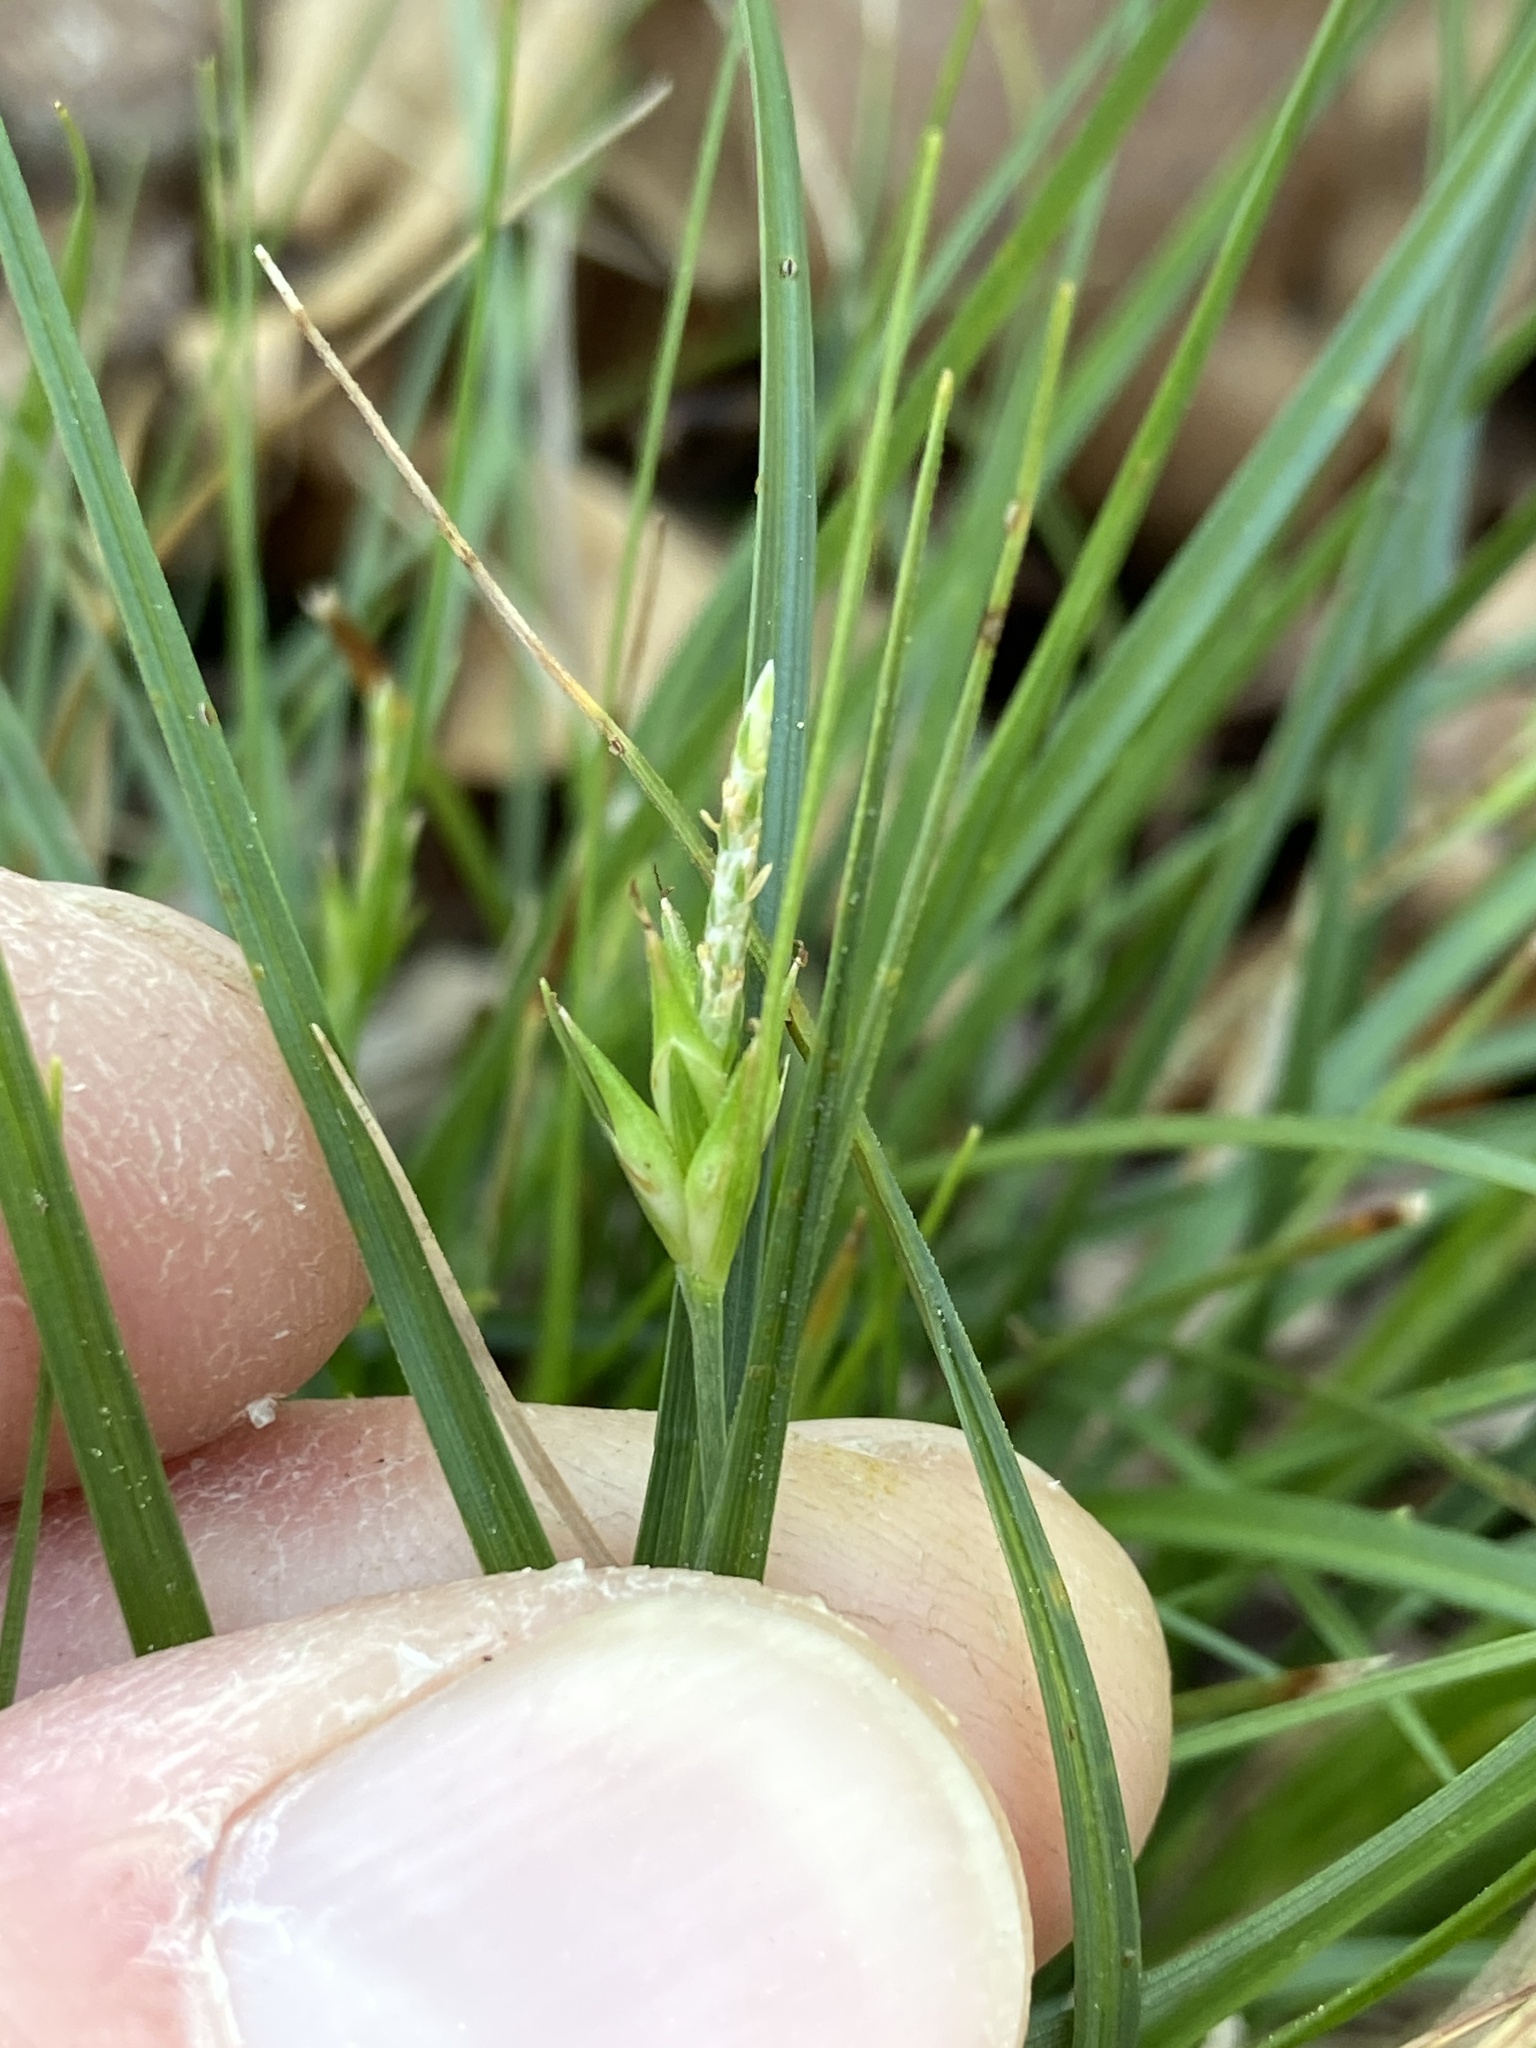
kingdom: Plantae
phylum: Tracheophyta
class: Liliopsida
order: Poales
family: Cyperaceae
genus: Carex
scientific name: Carex willdenowii
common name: Willdenow's sedge
